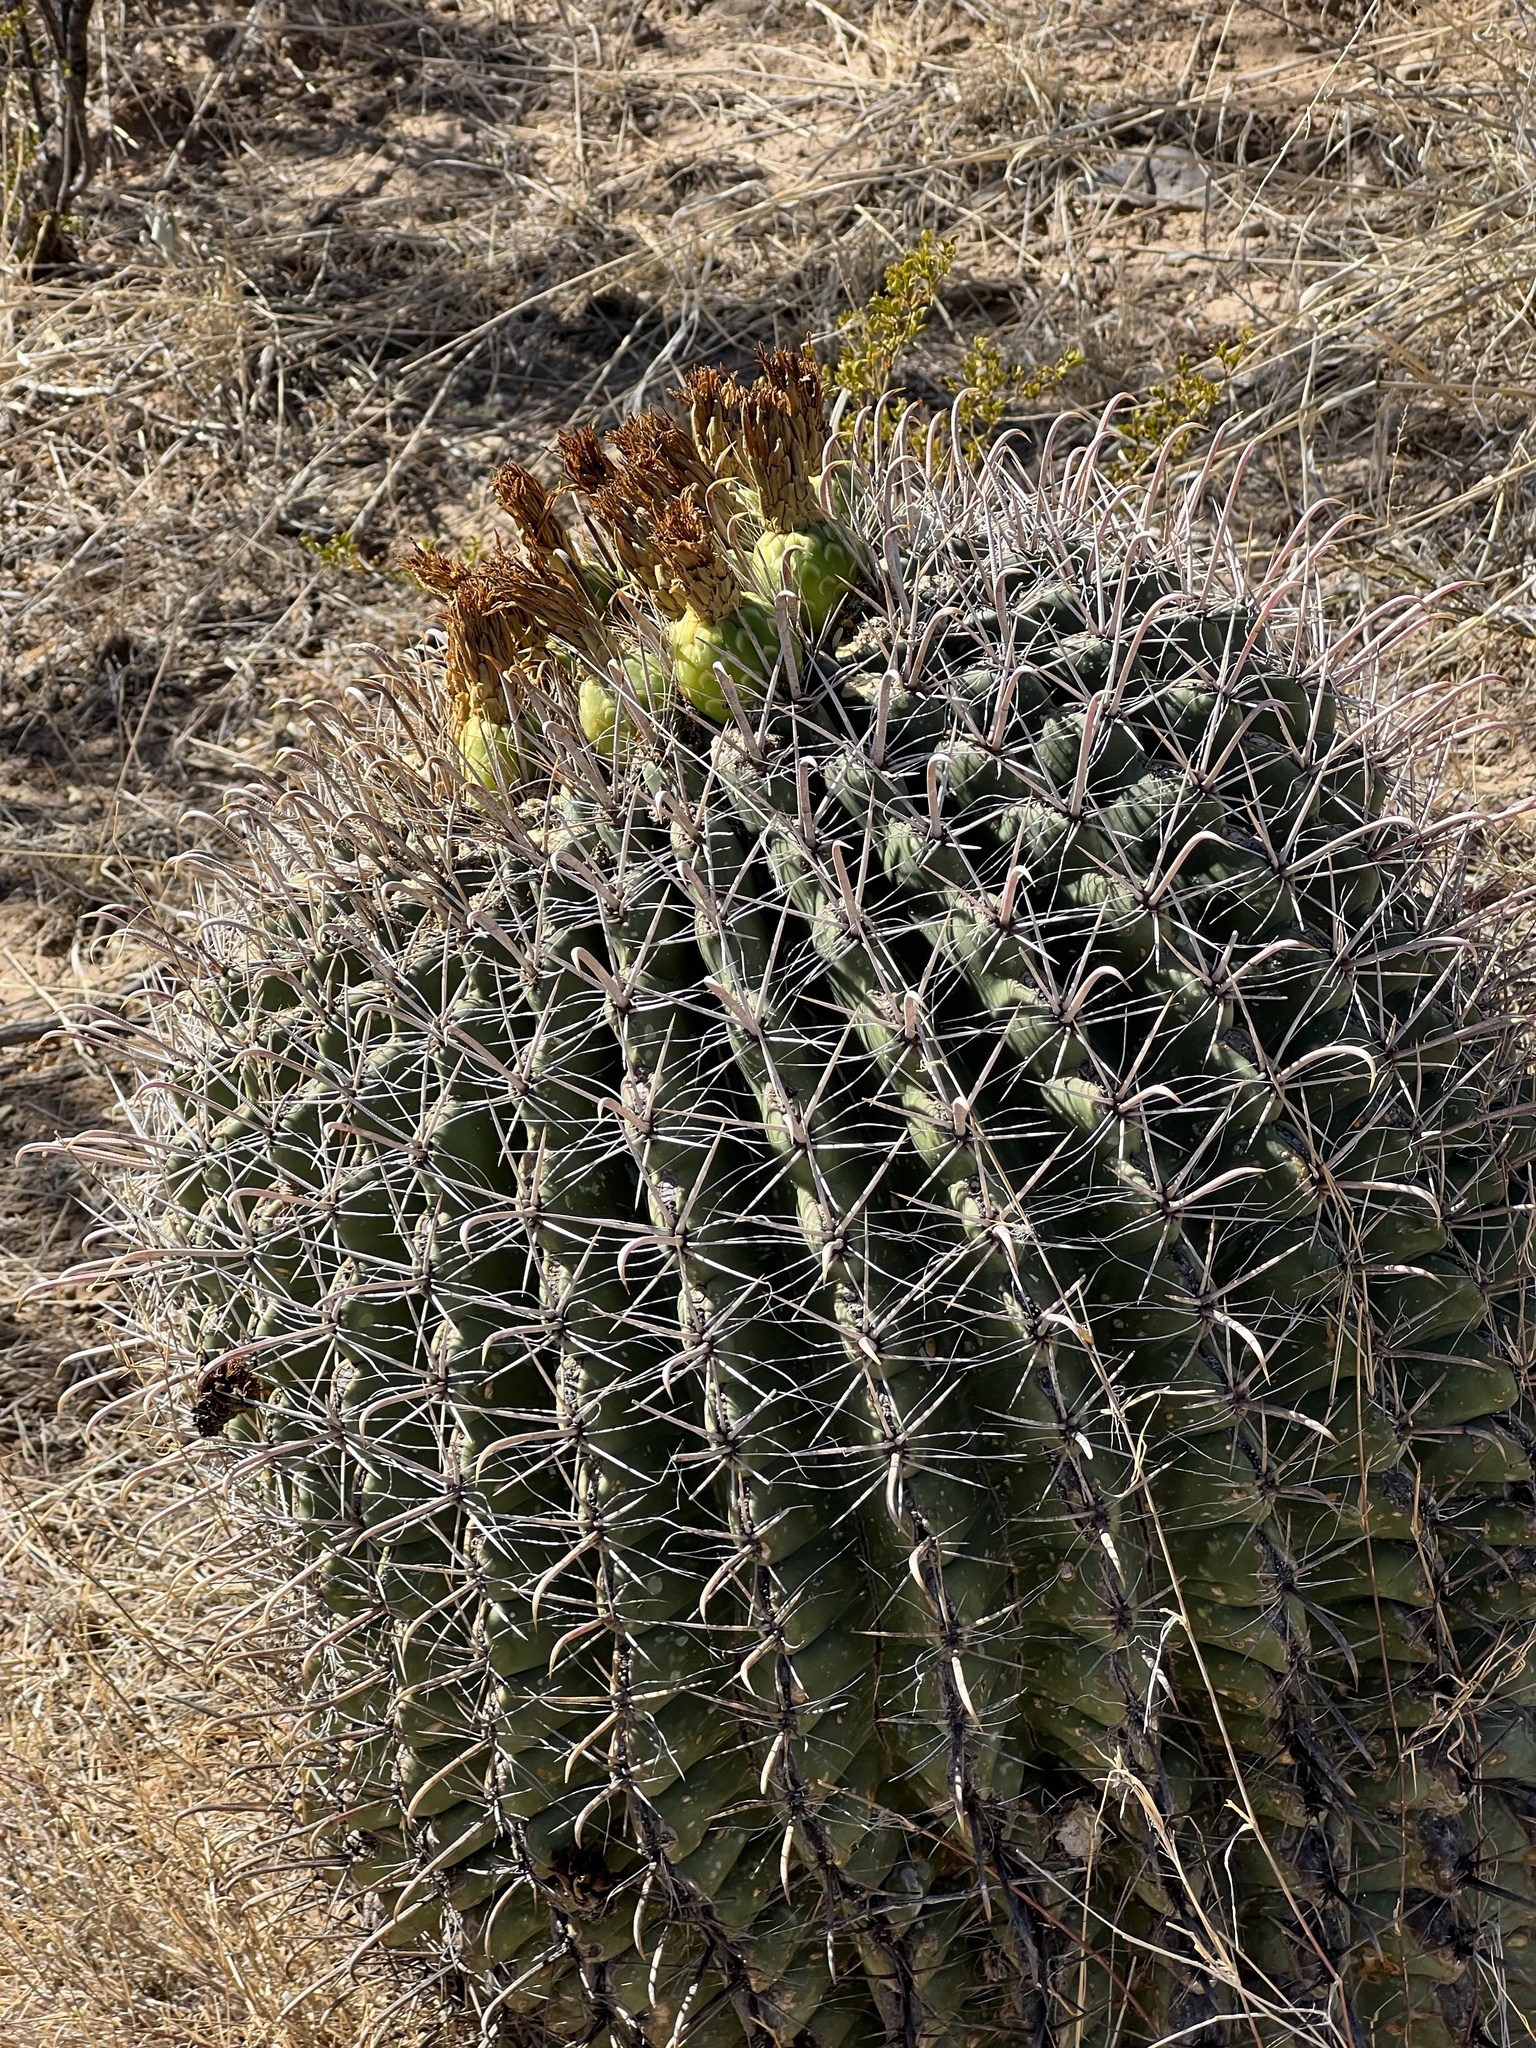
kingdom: Plantae
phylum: Tracheophyta
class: Magnoliopsida
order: Caryophyllales
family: Cactaceae
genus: Ferocactus
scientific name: Ferocactus wislizeni
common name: Candy barrel cactus
